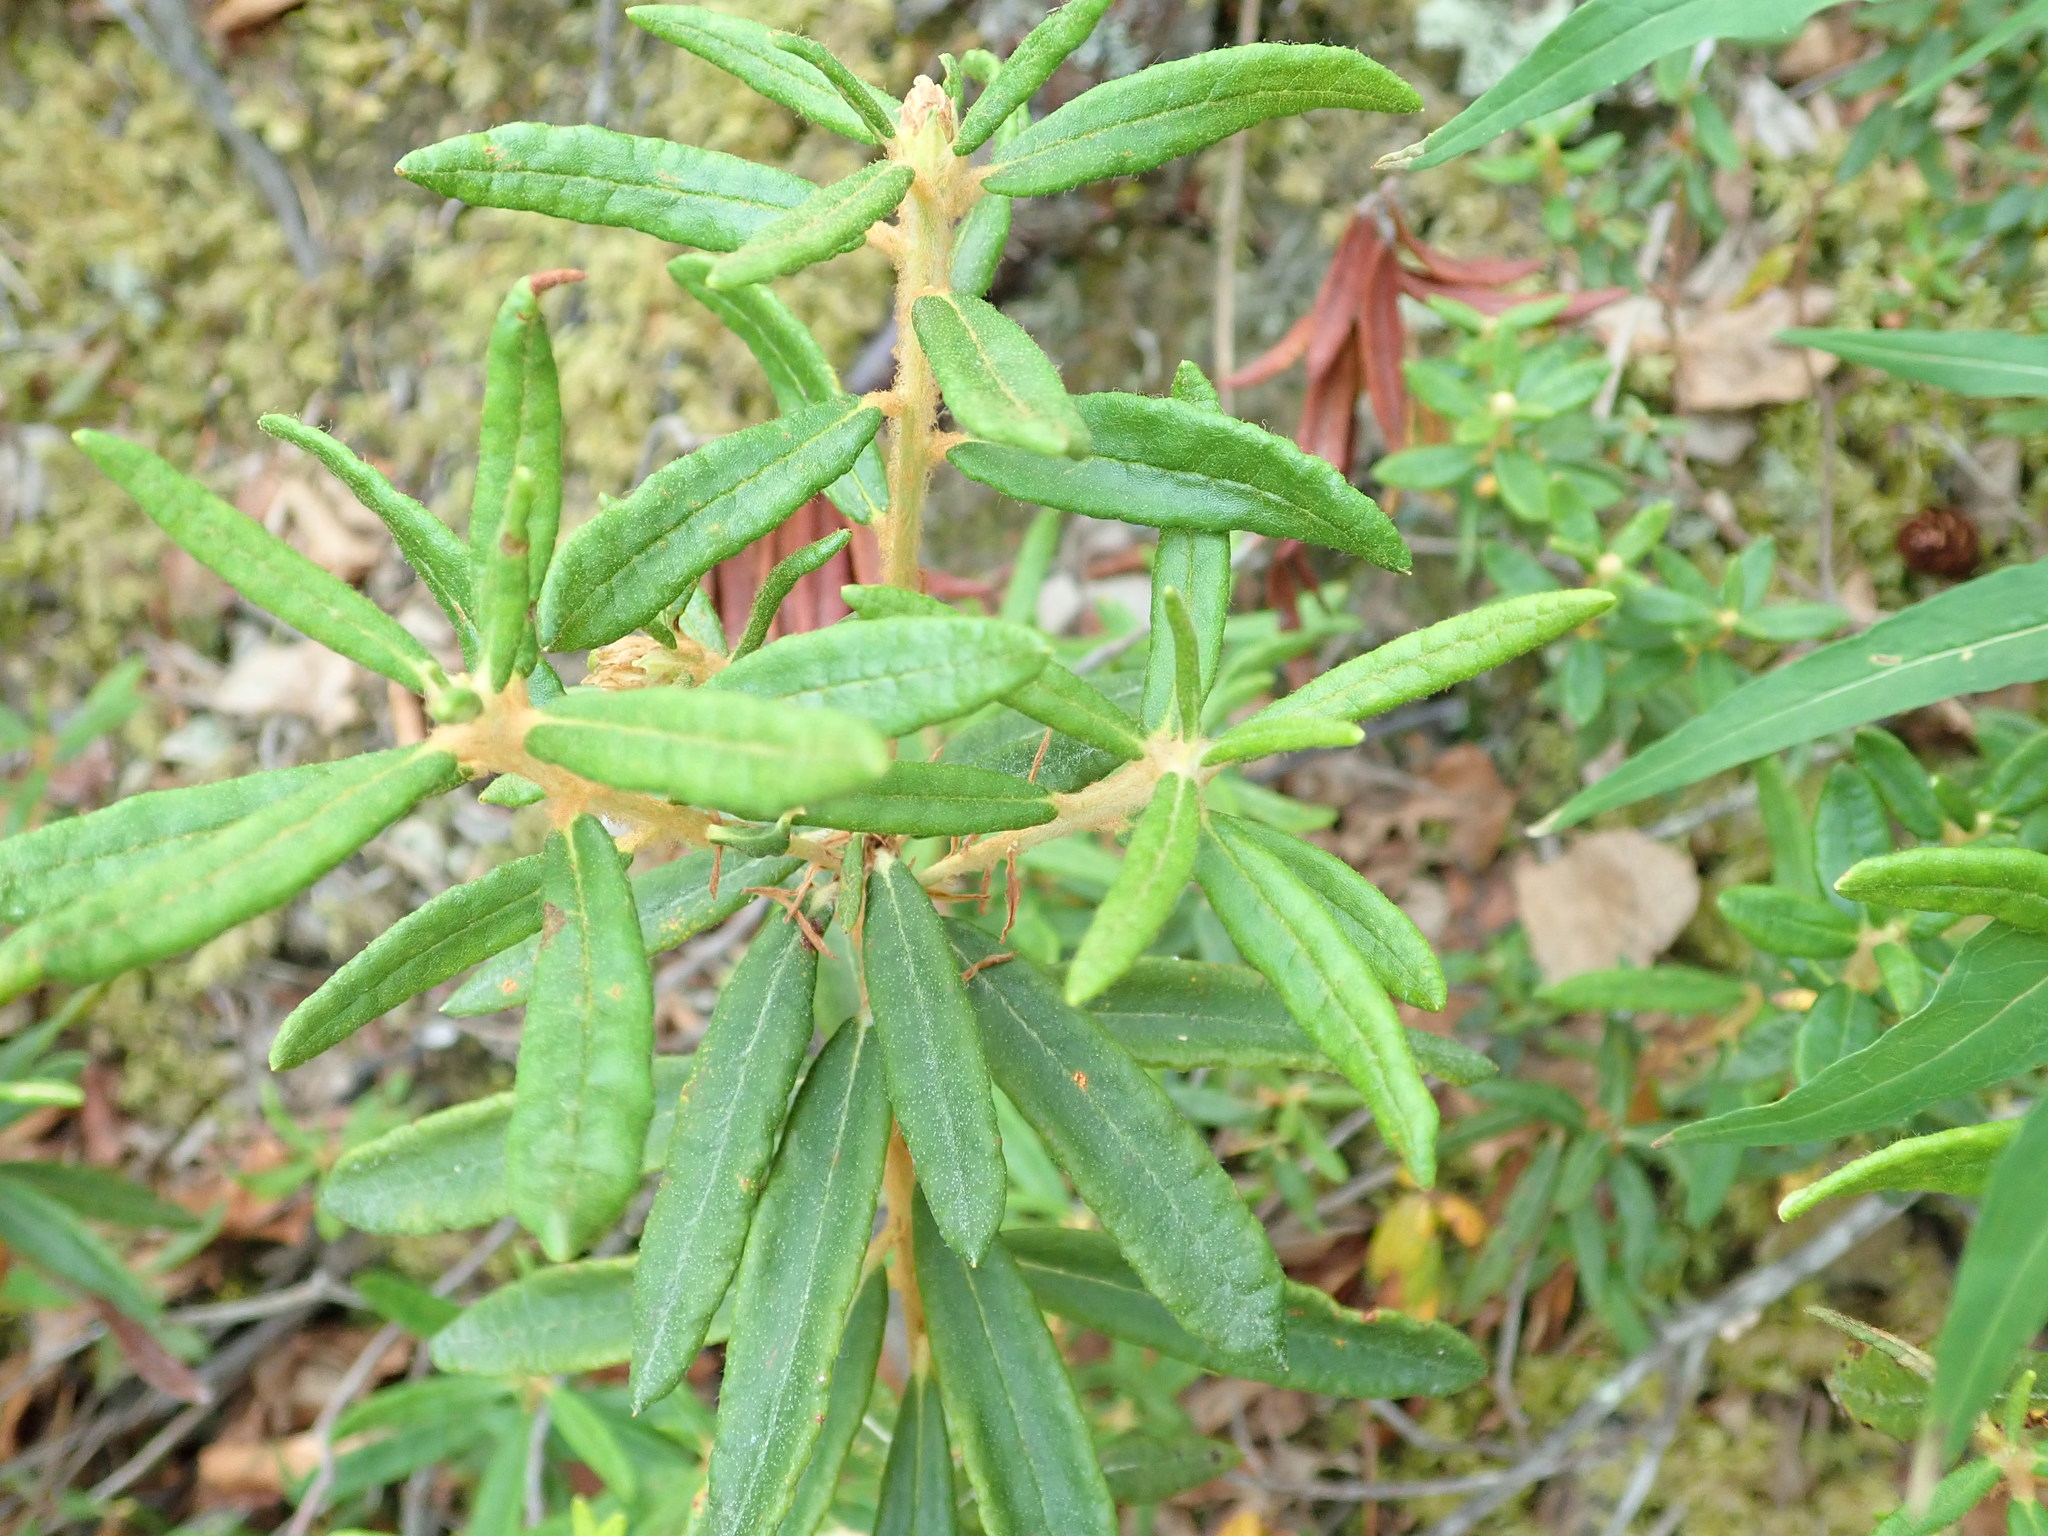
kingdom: Plantae
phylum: Tracheophyta
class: Magnoliopsida
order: Ericales
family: Ericaceae
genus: Rhododendron
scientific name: Rhododendron groenlandicum
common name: Bog labrador tea
